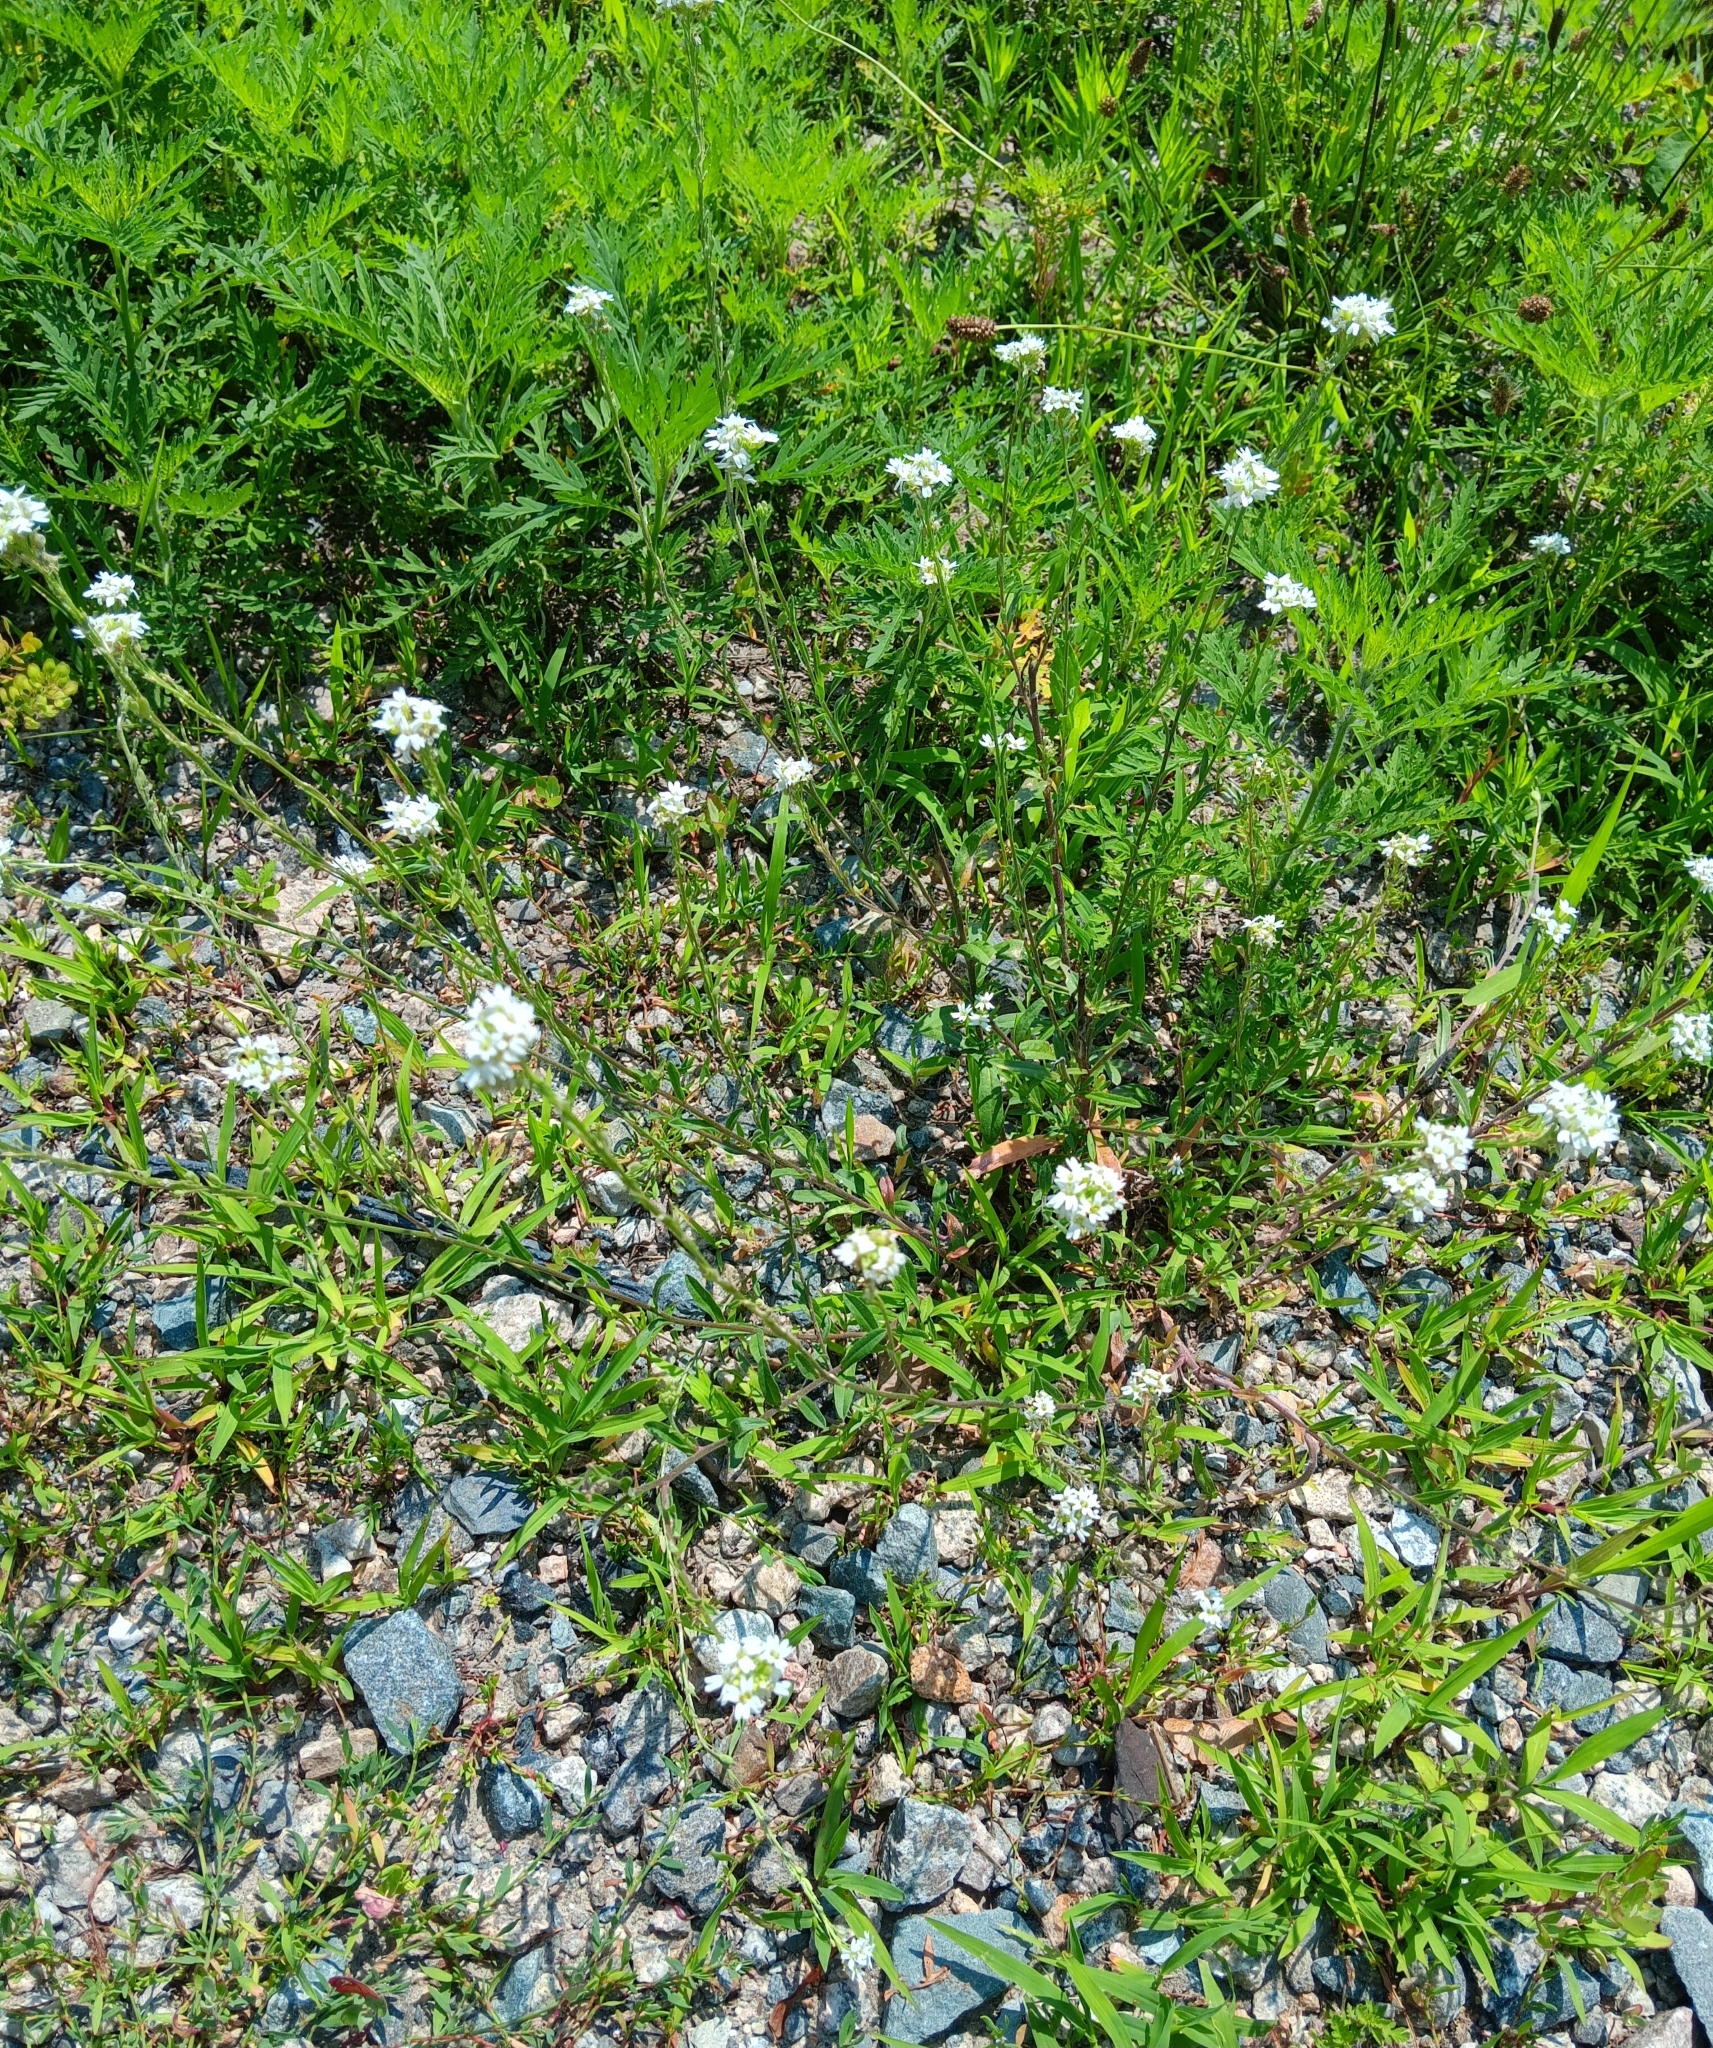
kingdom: Plantae
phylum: Tracheophyta
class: Magnoliopsida
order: Brassicales
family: Brassicaceae
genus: Berteroa
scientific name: Berteroa incana
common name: Hoary alison
